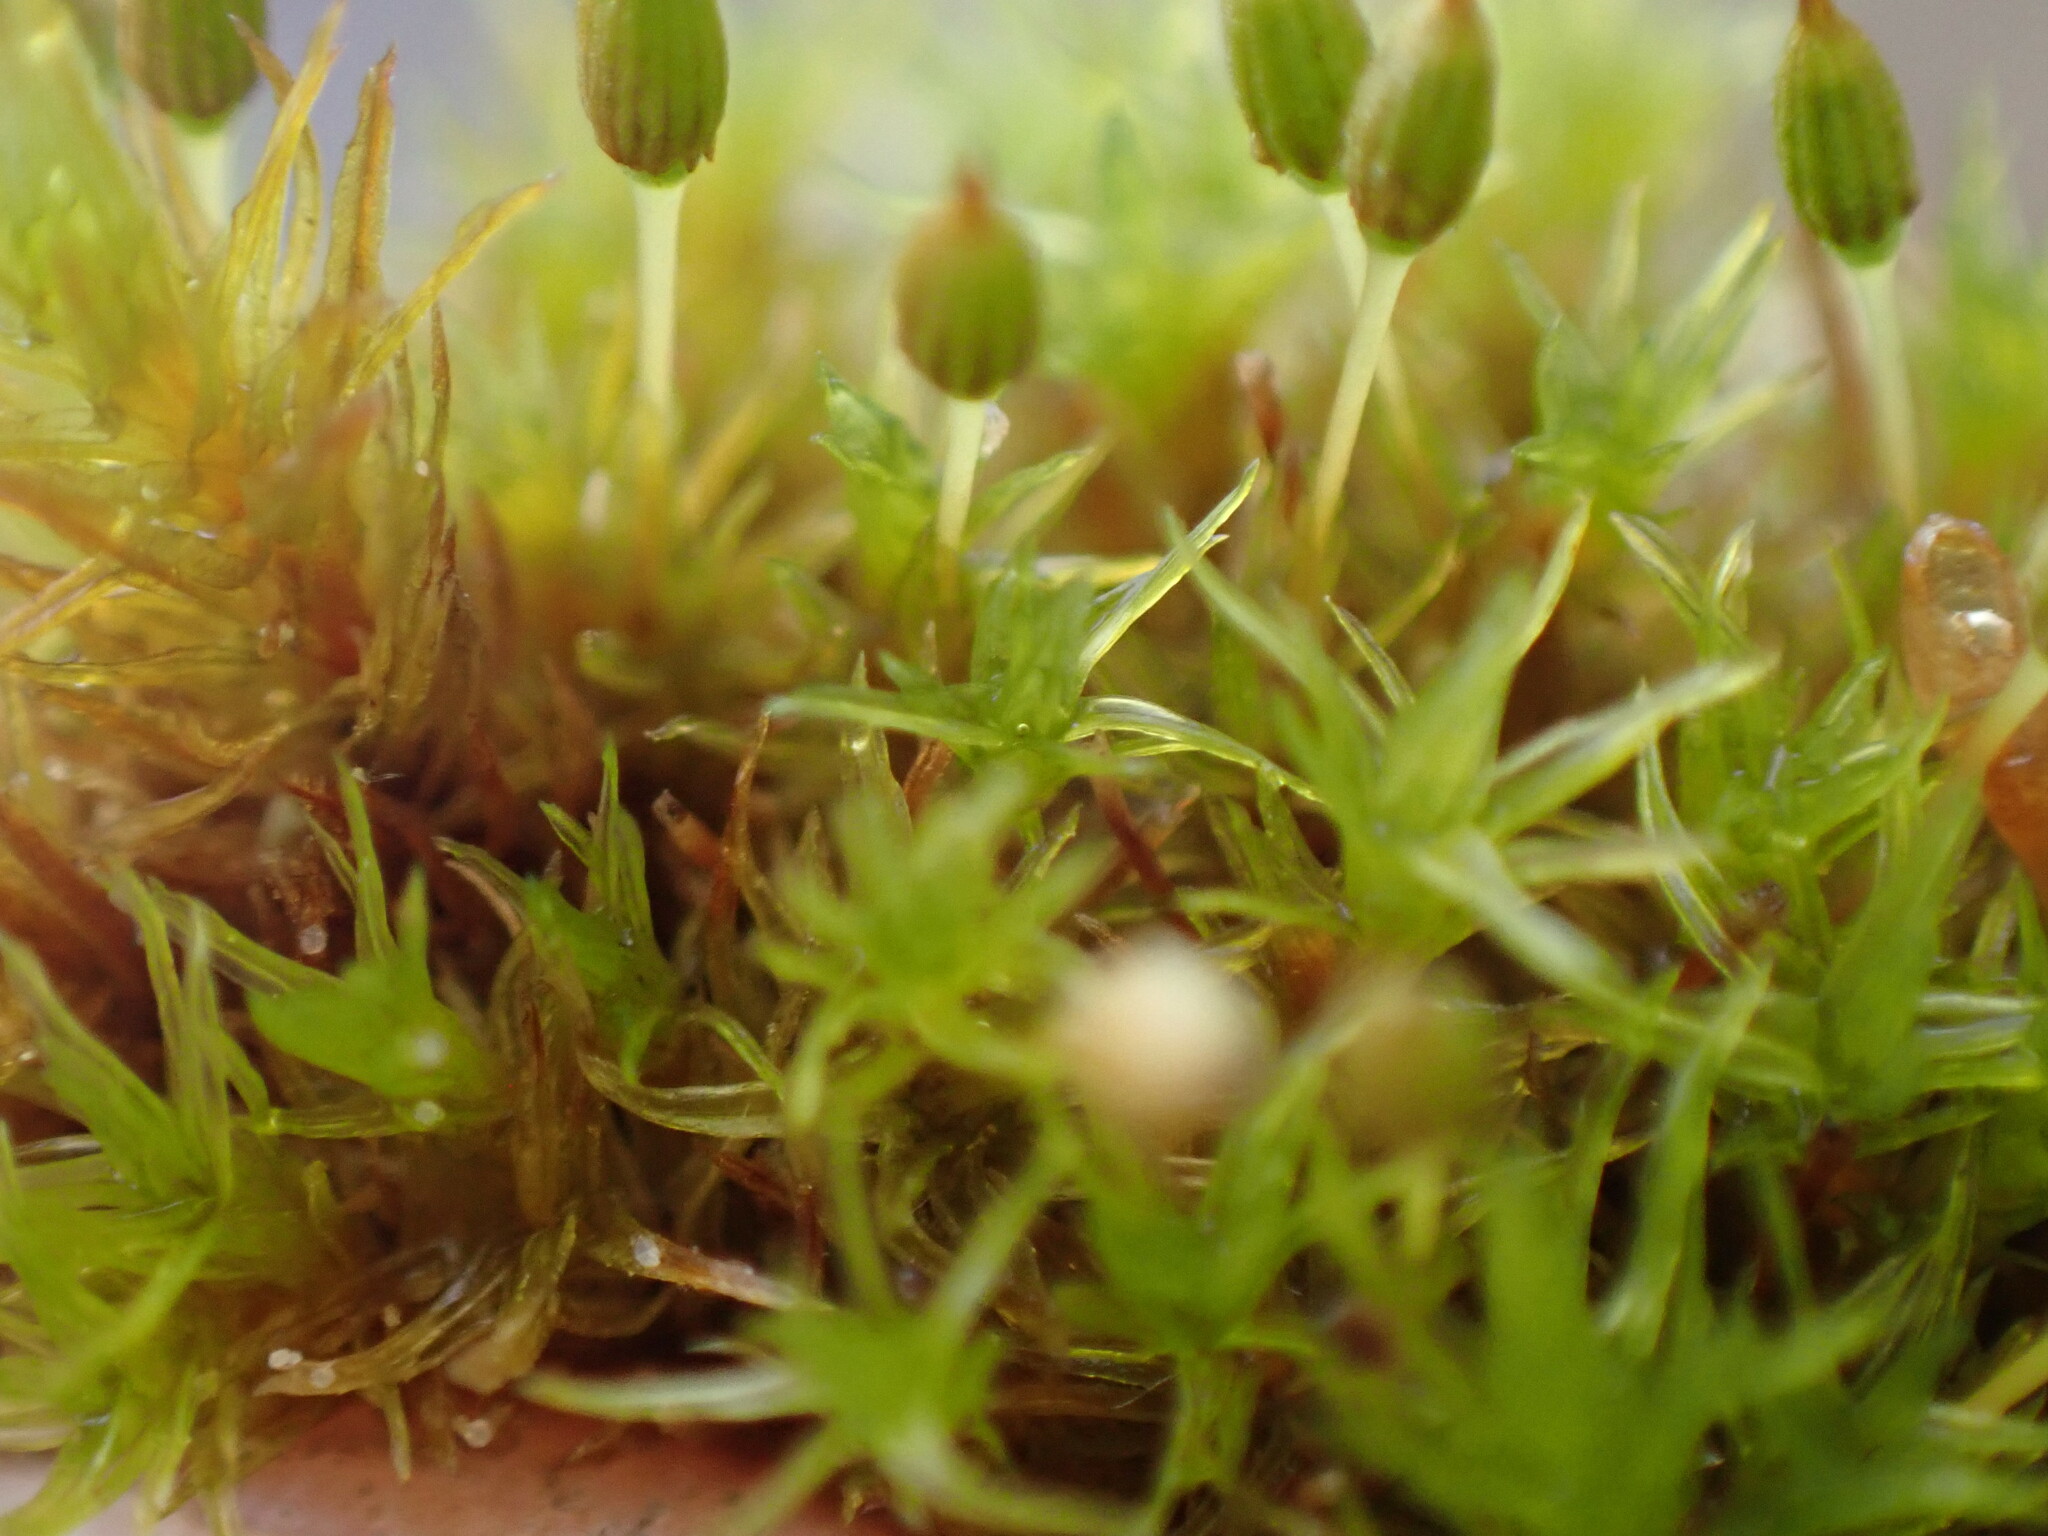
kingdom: Plantae
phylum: Bryophyta
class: Bryopsida
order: Orthotrichales
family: Orthotrichaceae
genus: Orthotrichum
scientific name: Orthotrichum columbicum
